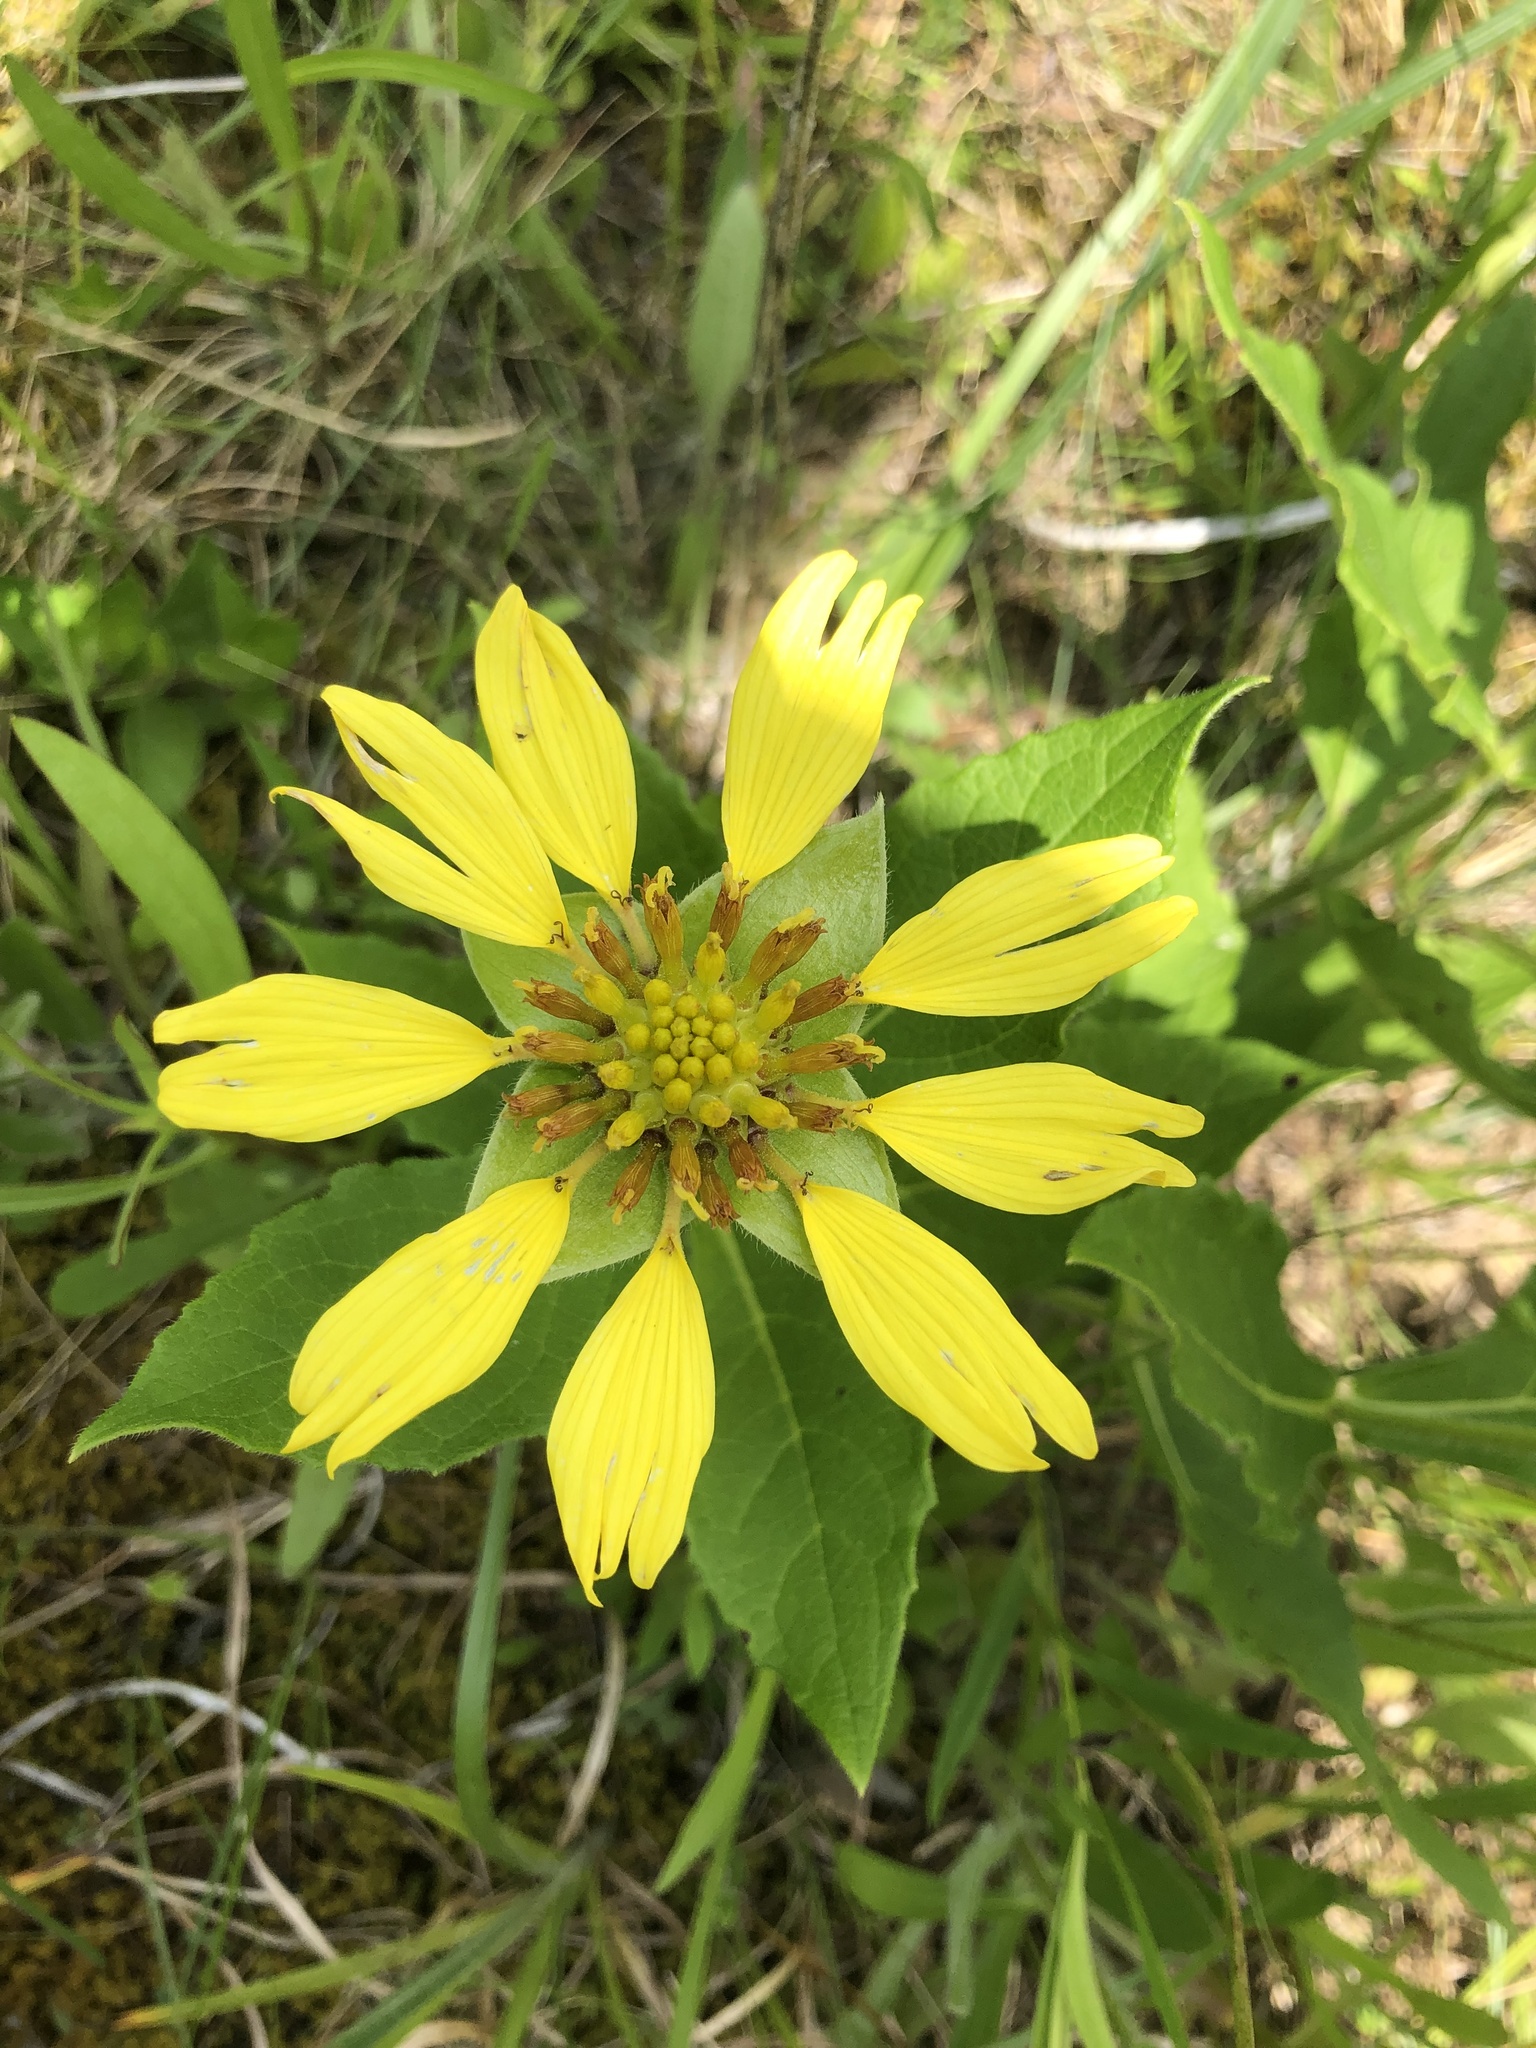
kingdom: Plantae
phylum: Tracheophyta
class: Magnoliopsida
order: Asterales
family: Asteraceae
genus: Tetragonotheca
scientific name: Tetragonotheca helianthoides
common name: Pineland-ginseng
